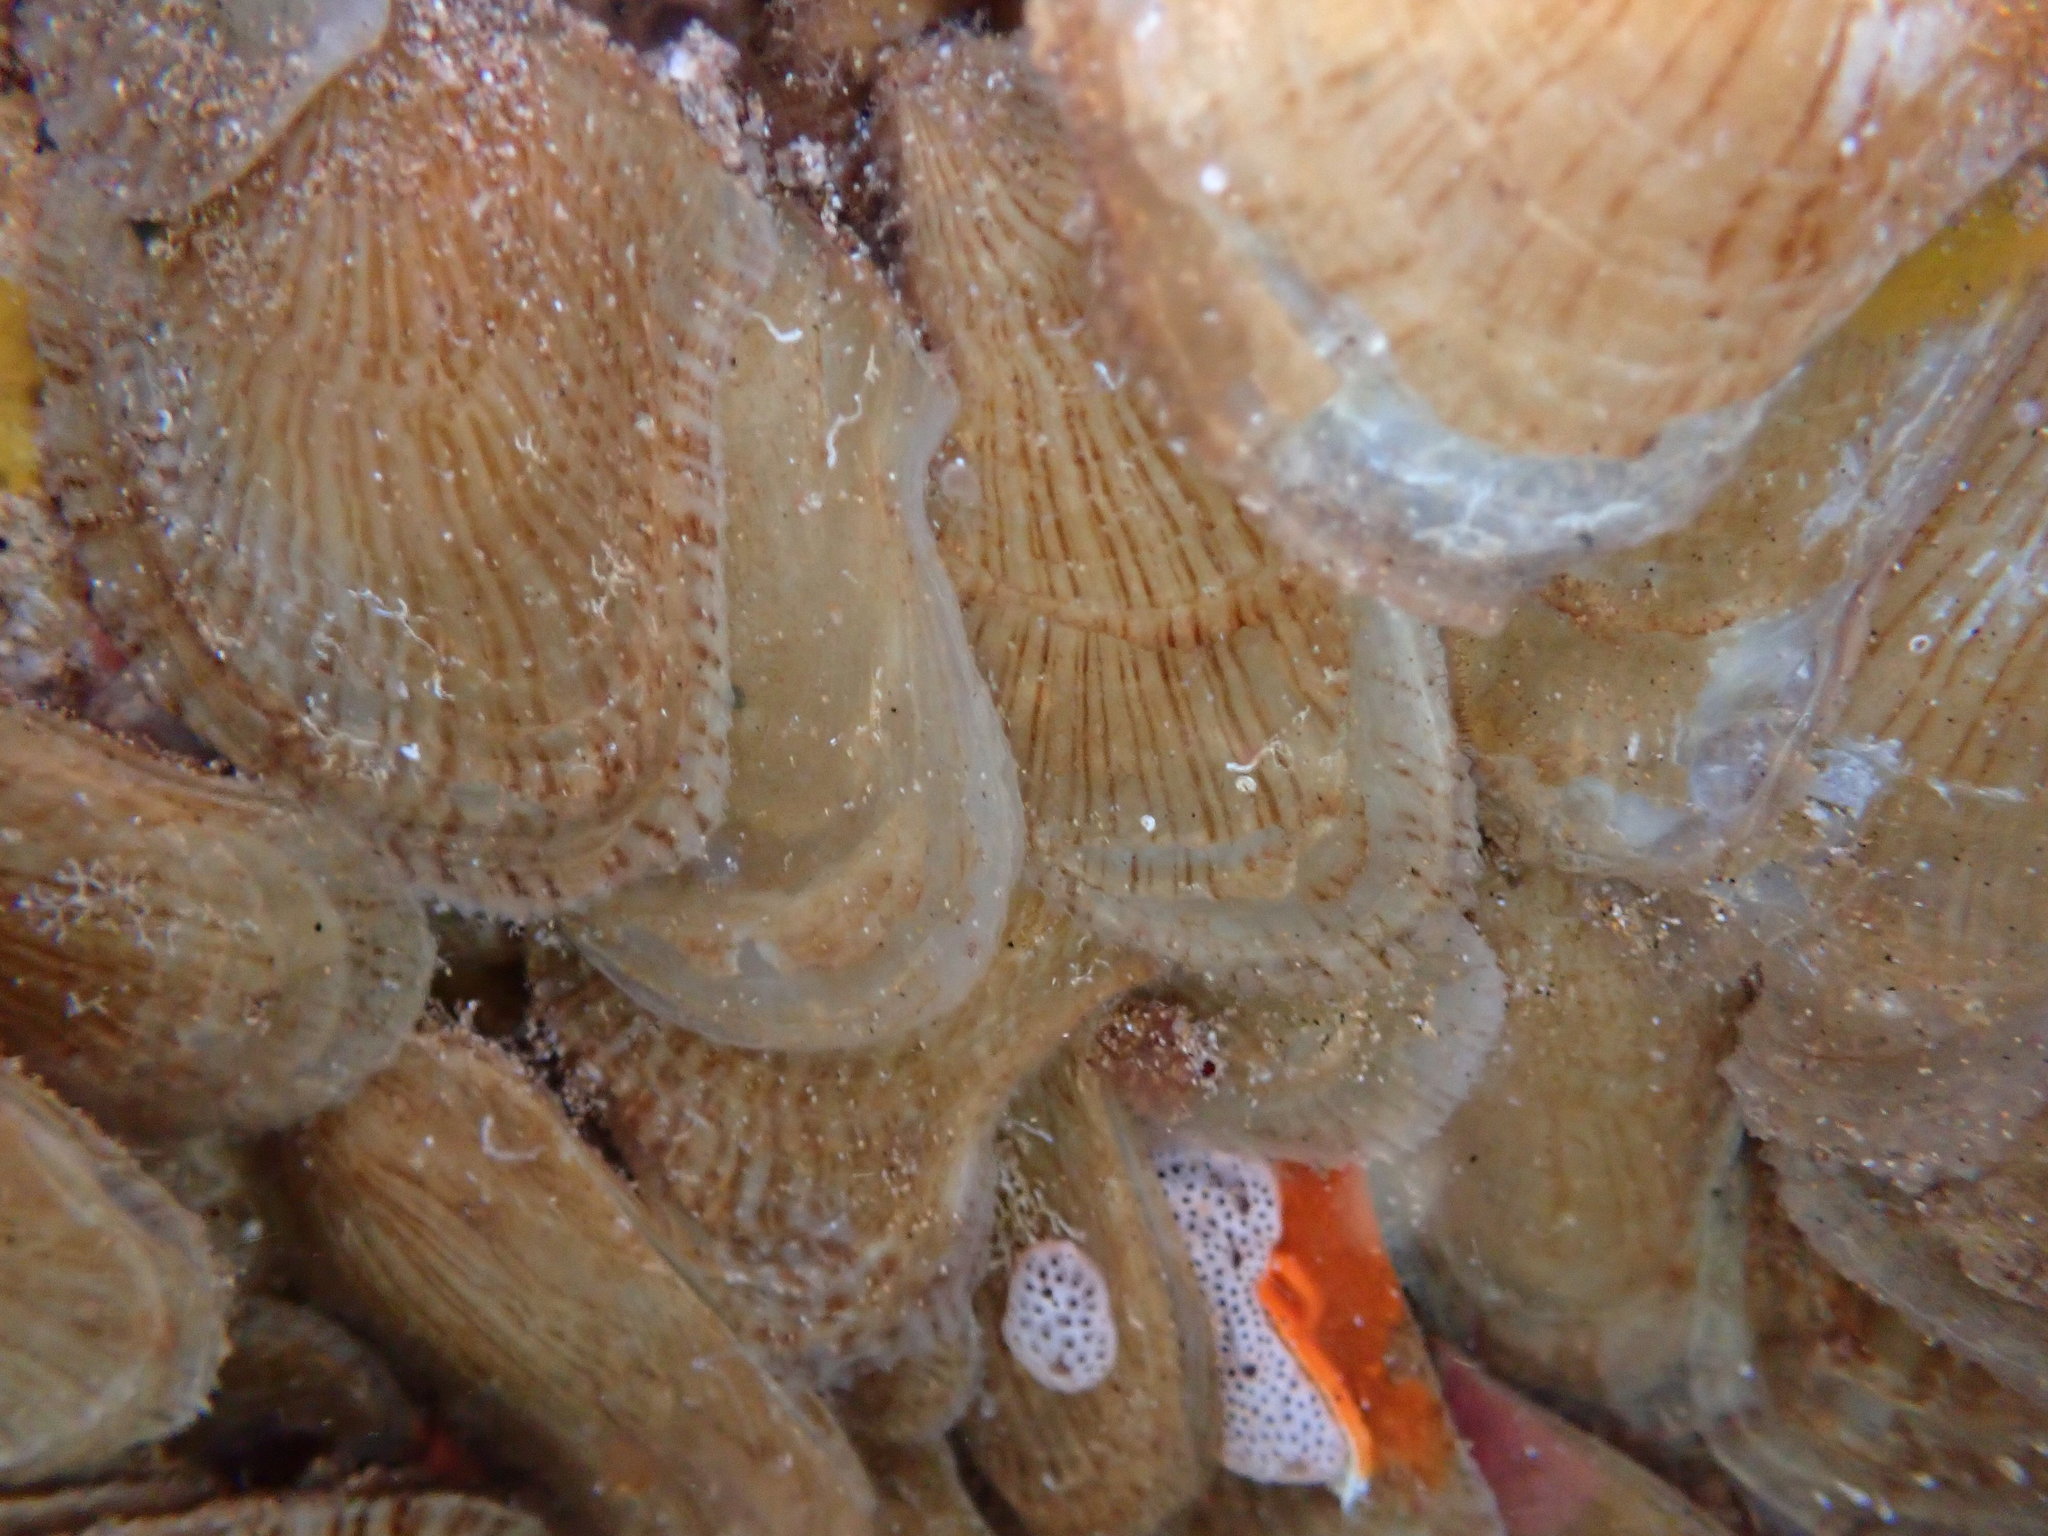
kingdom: Animalia
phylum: Mollusca
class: Bivalvia
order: Ostreida
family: Isognomonidae
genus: Isognomon
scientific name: Isognomon perna
